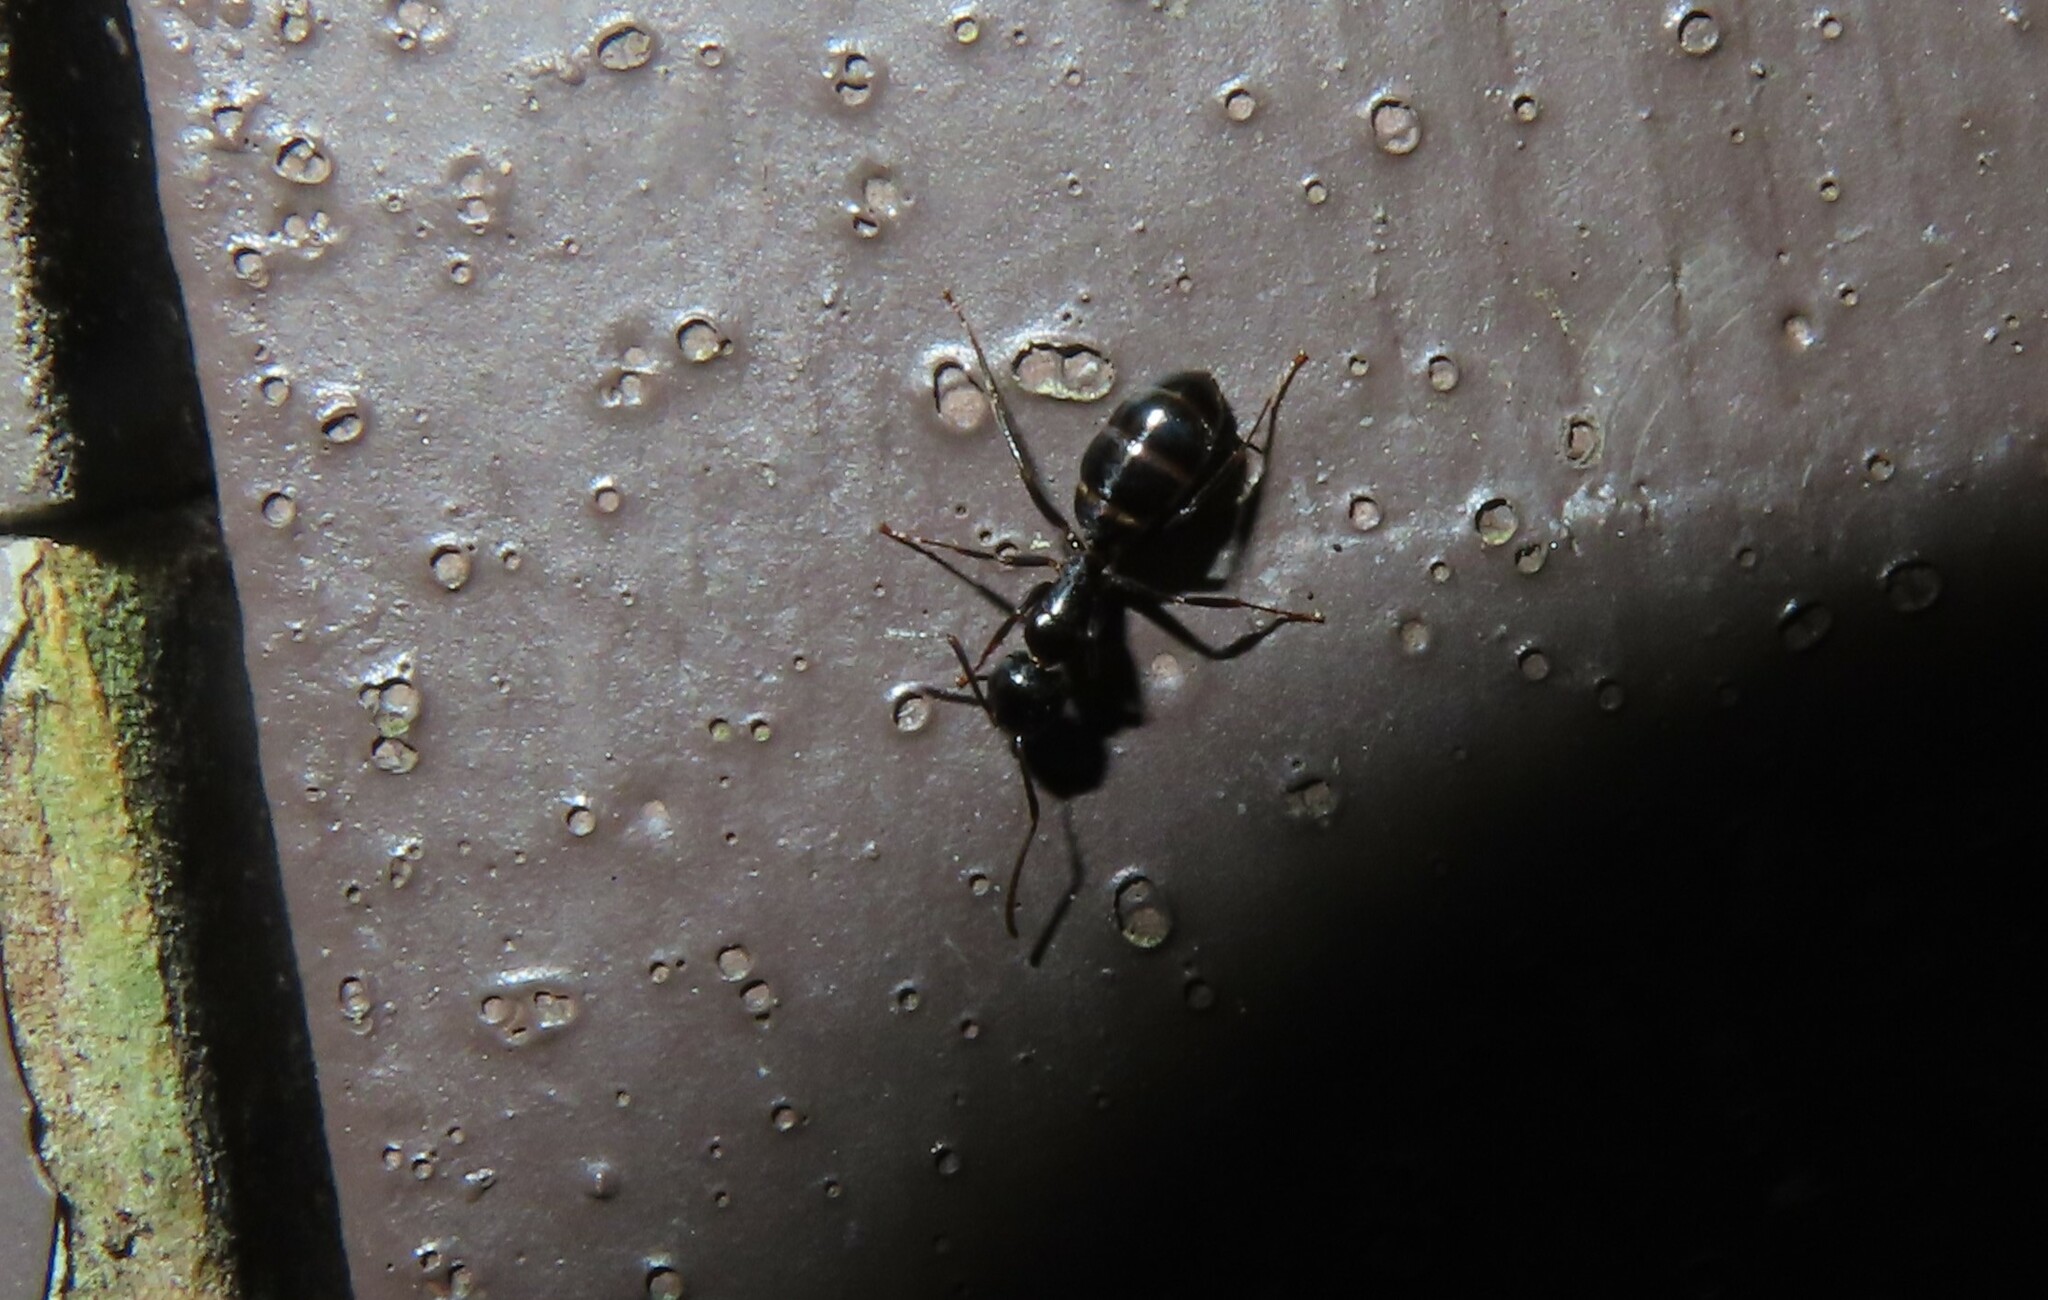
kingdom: Animalia
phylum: Arthropoda
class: Insecta
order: Hymenoptera
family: Formicidae
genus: Camponotus
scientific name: Camponotus nearcticus
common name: Smaller carpenter ant
